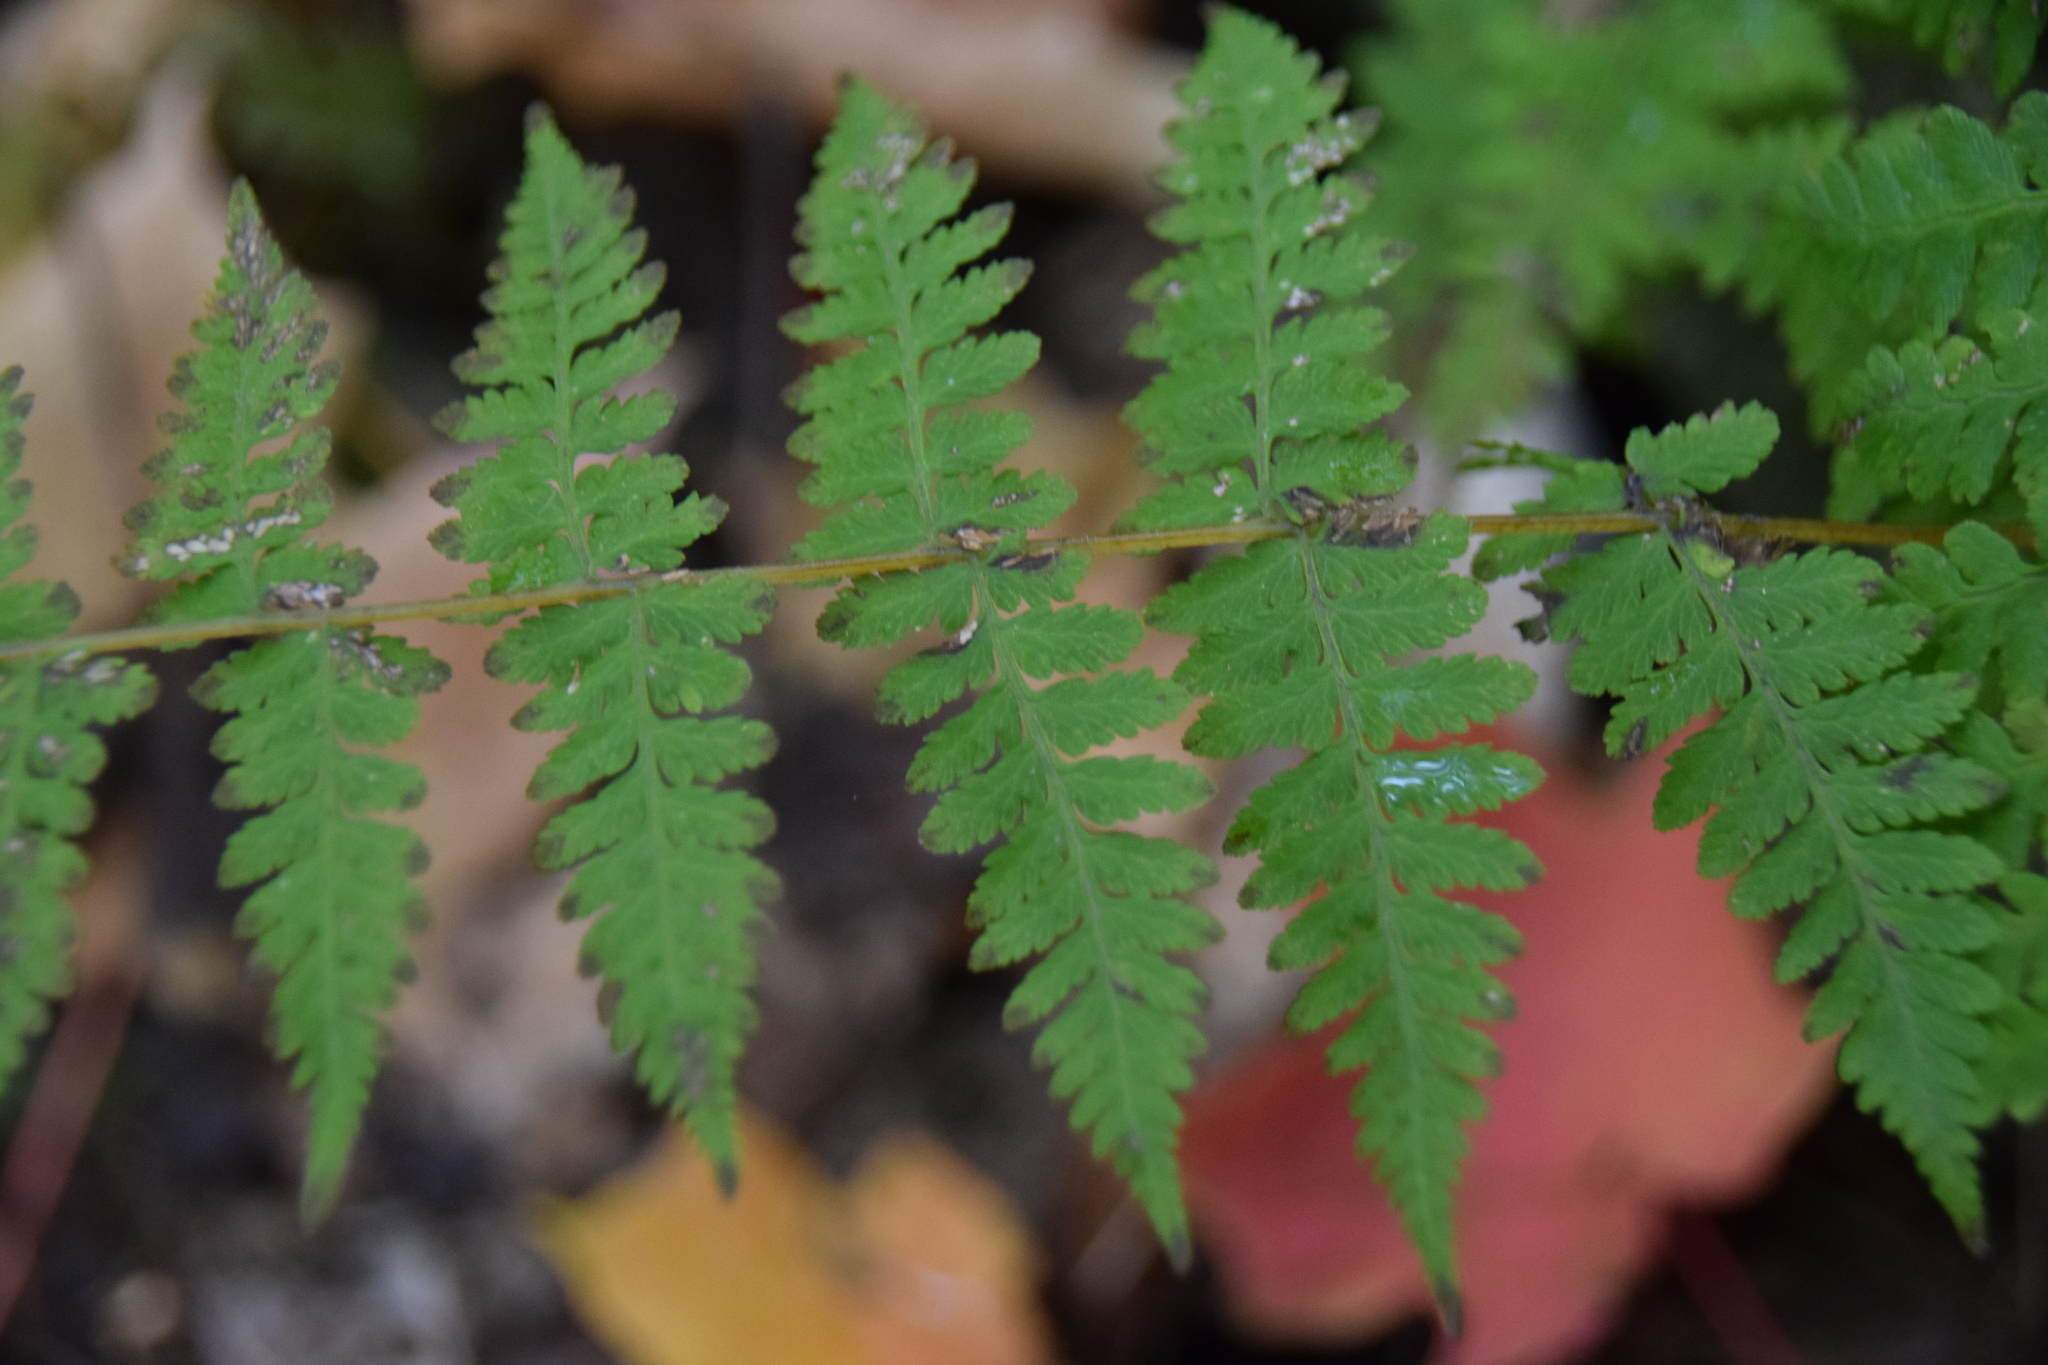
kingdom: Plantae
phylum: Tracheophyta
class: Polypodiopsida
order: Polypodiales
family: Cystopteridaceae
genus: Cystopteris
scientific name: Cystopteris bulbifera
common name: Bulblet bladder fern
